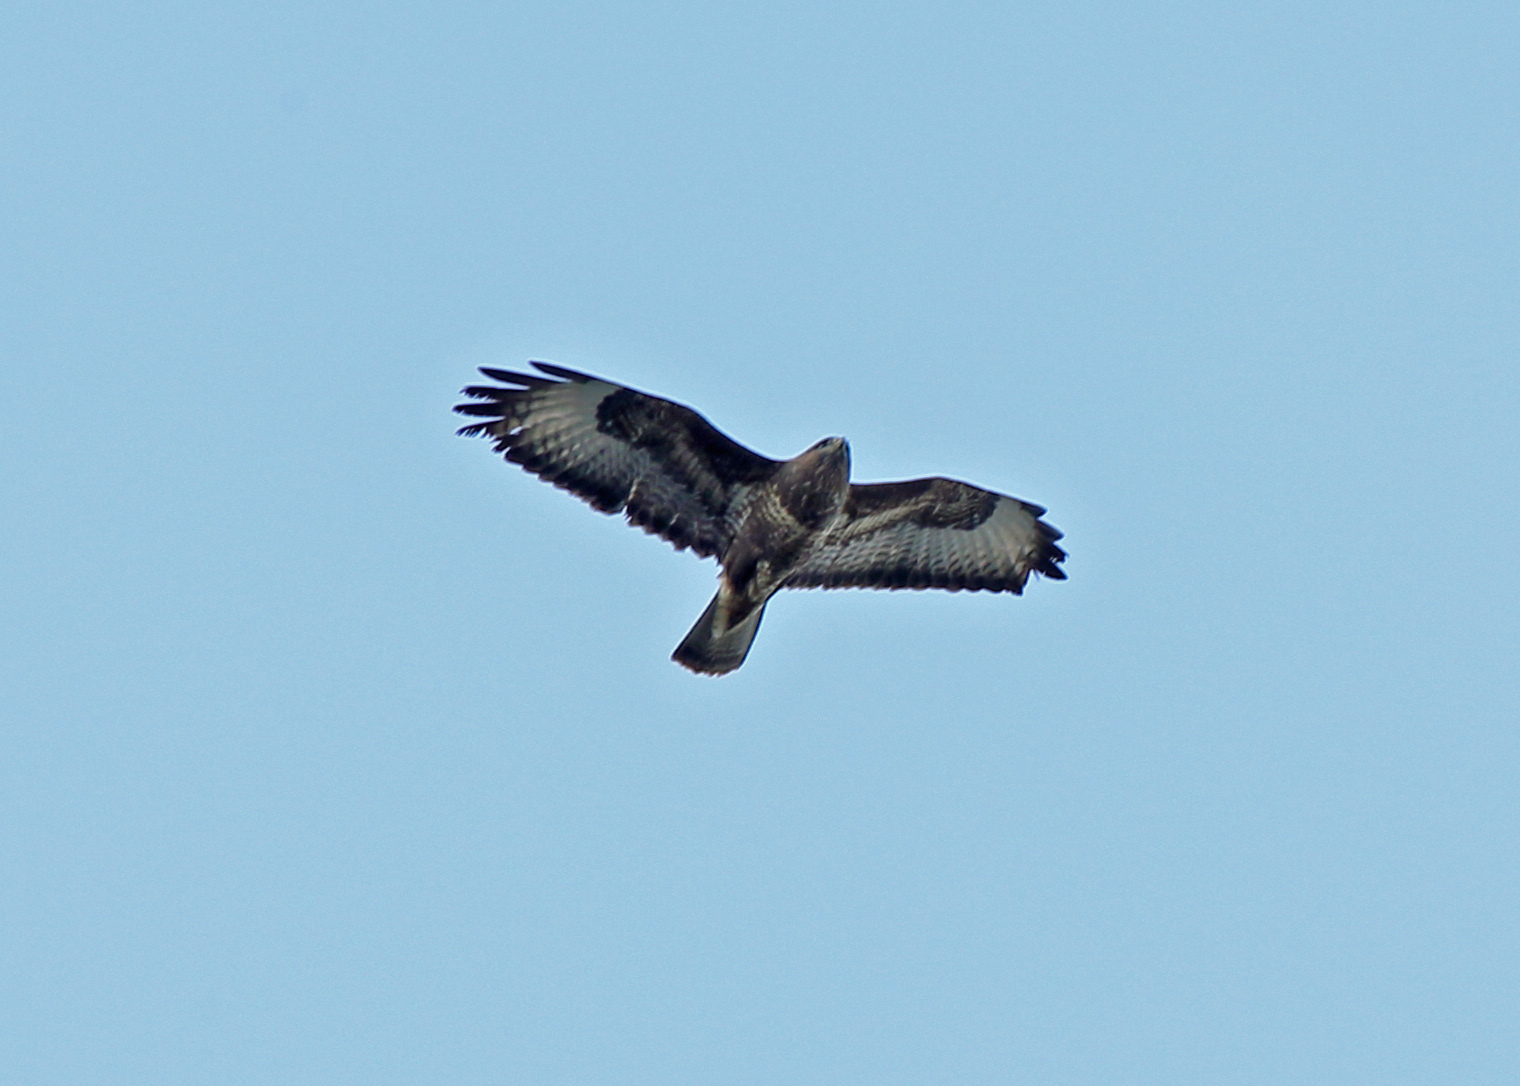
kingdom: Animalia
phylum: Chordata
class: Aves
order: Accipitriformes
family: Accipitridae
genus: Buteo
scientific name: Buteo buteo
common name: Common buzzard
